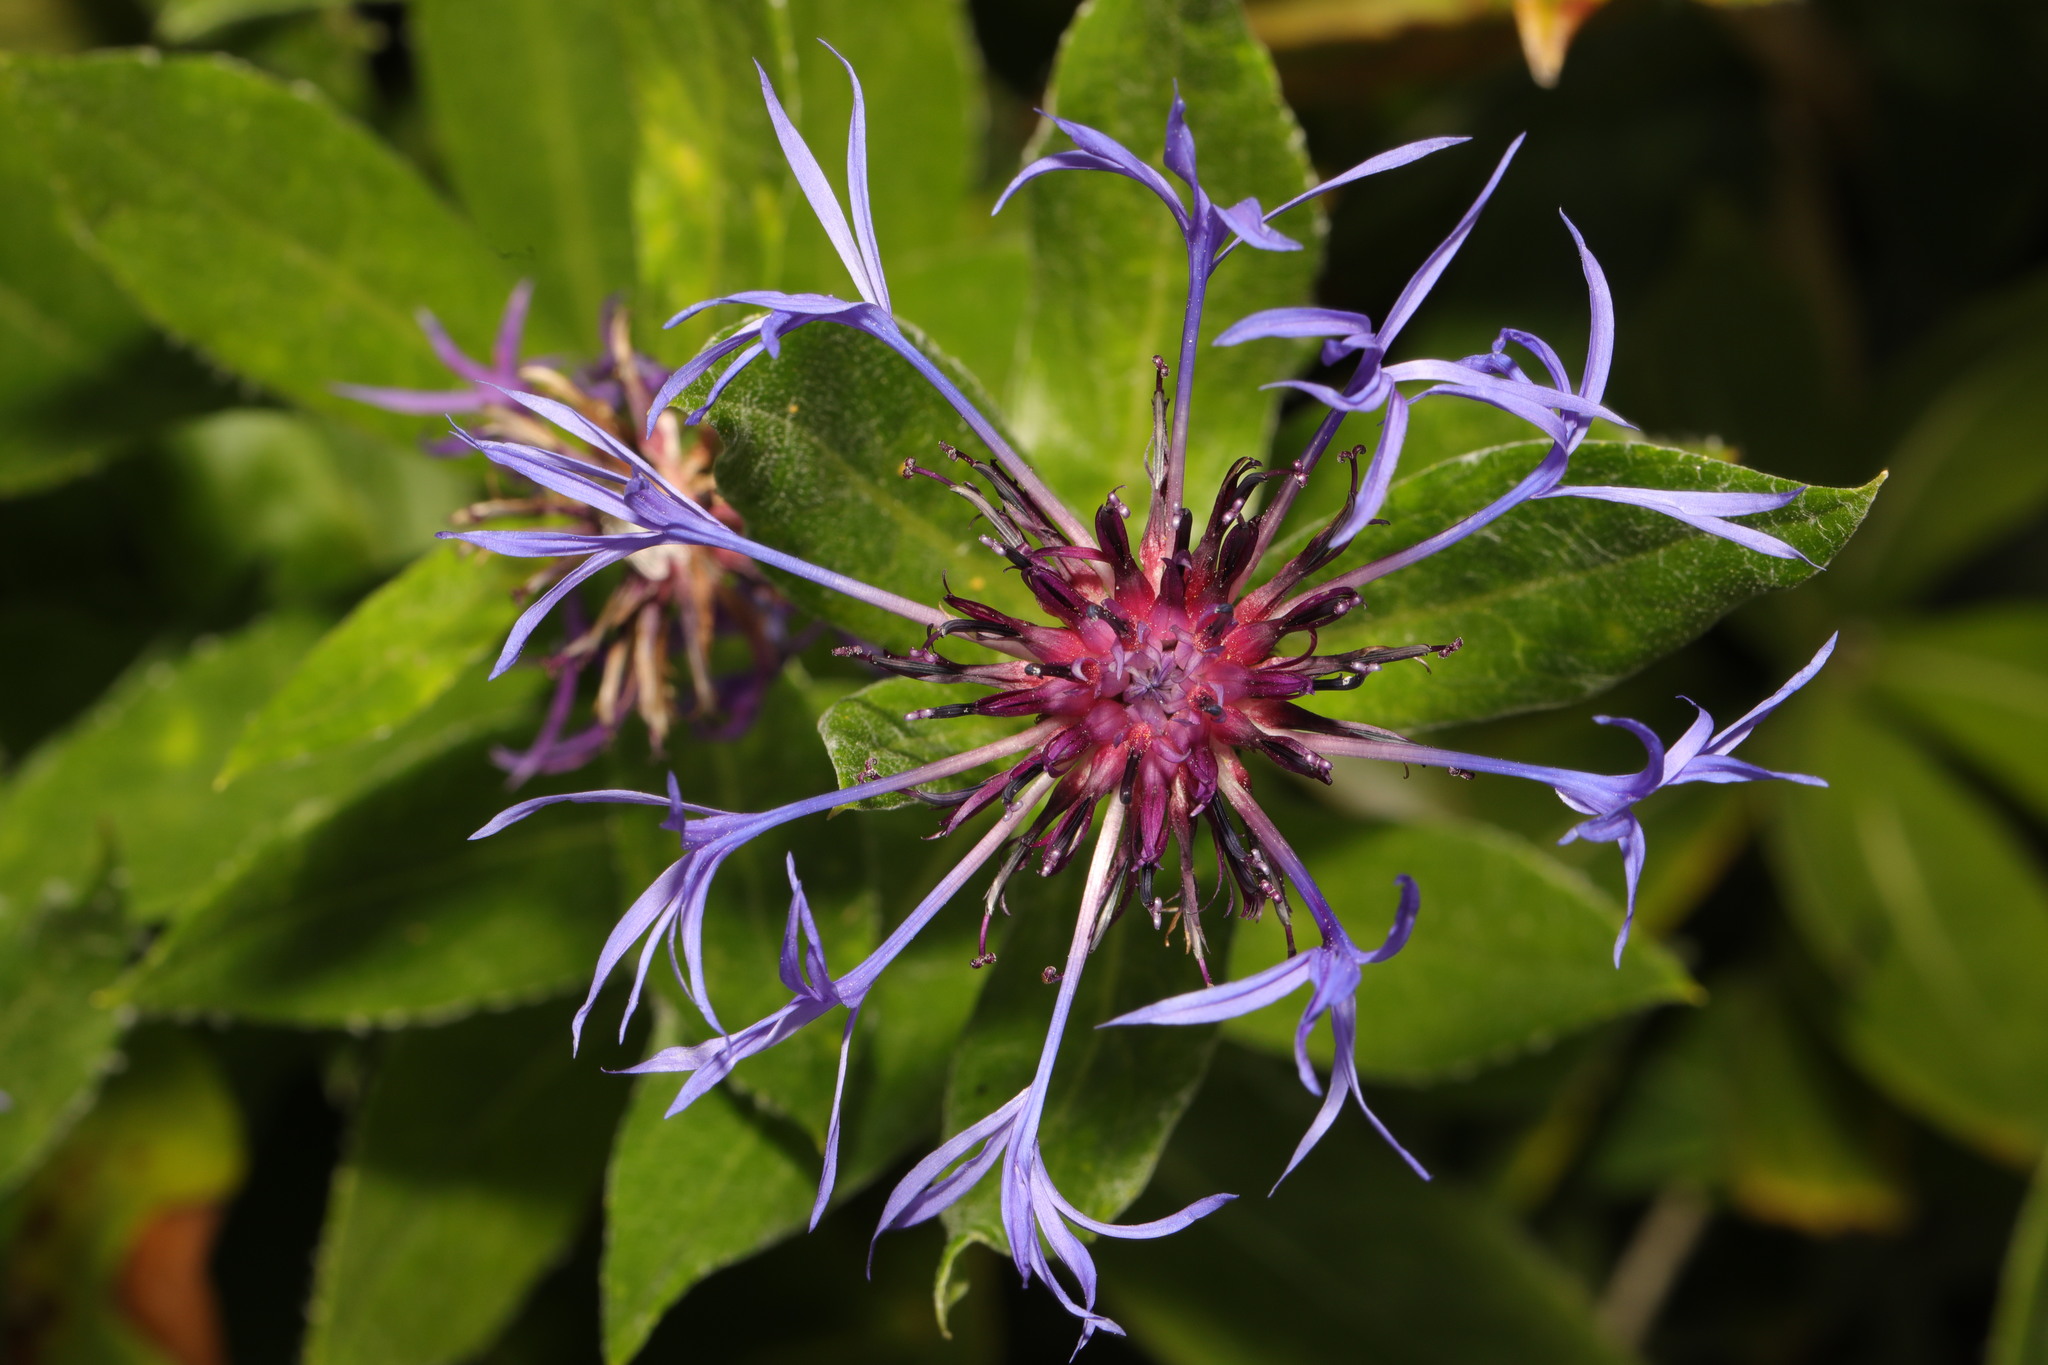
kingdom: Plantae
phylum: Tracheophyta
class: Magnoliopsida
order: Asterales
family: Asteraceae
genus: Centaurea
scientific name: Centaurea montana
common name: Perennial cornflower
